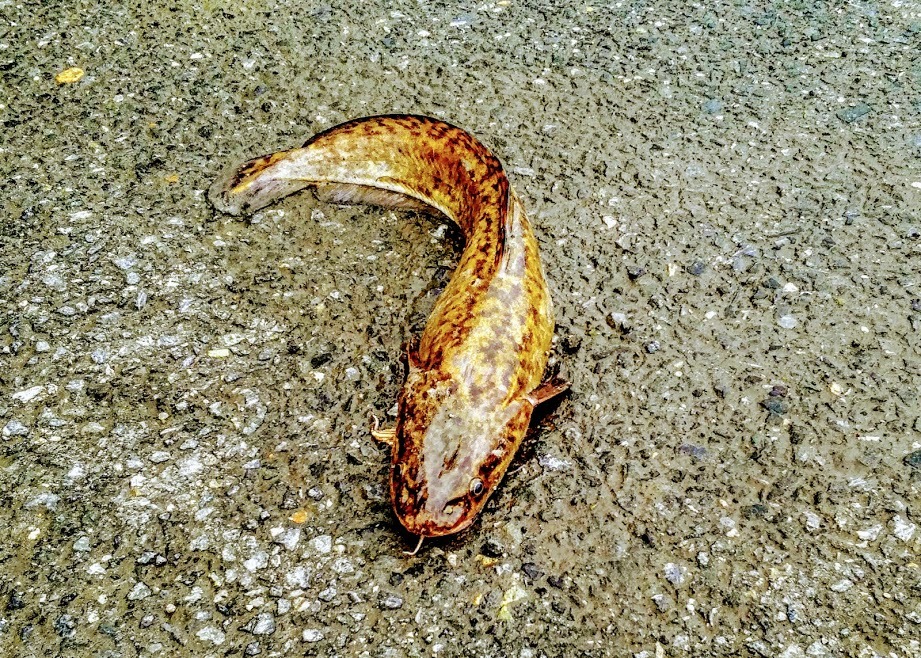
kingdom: Animalia
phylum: Chordata
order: Gadiformes
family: Lotidae
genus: Lota
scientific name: Lota lota
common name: Burbot
